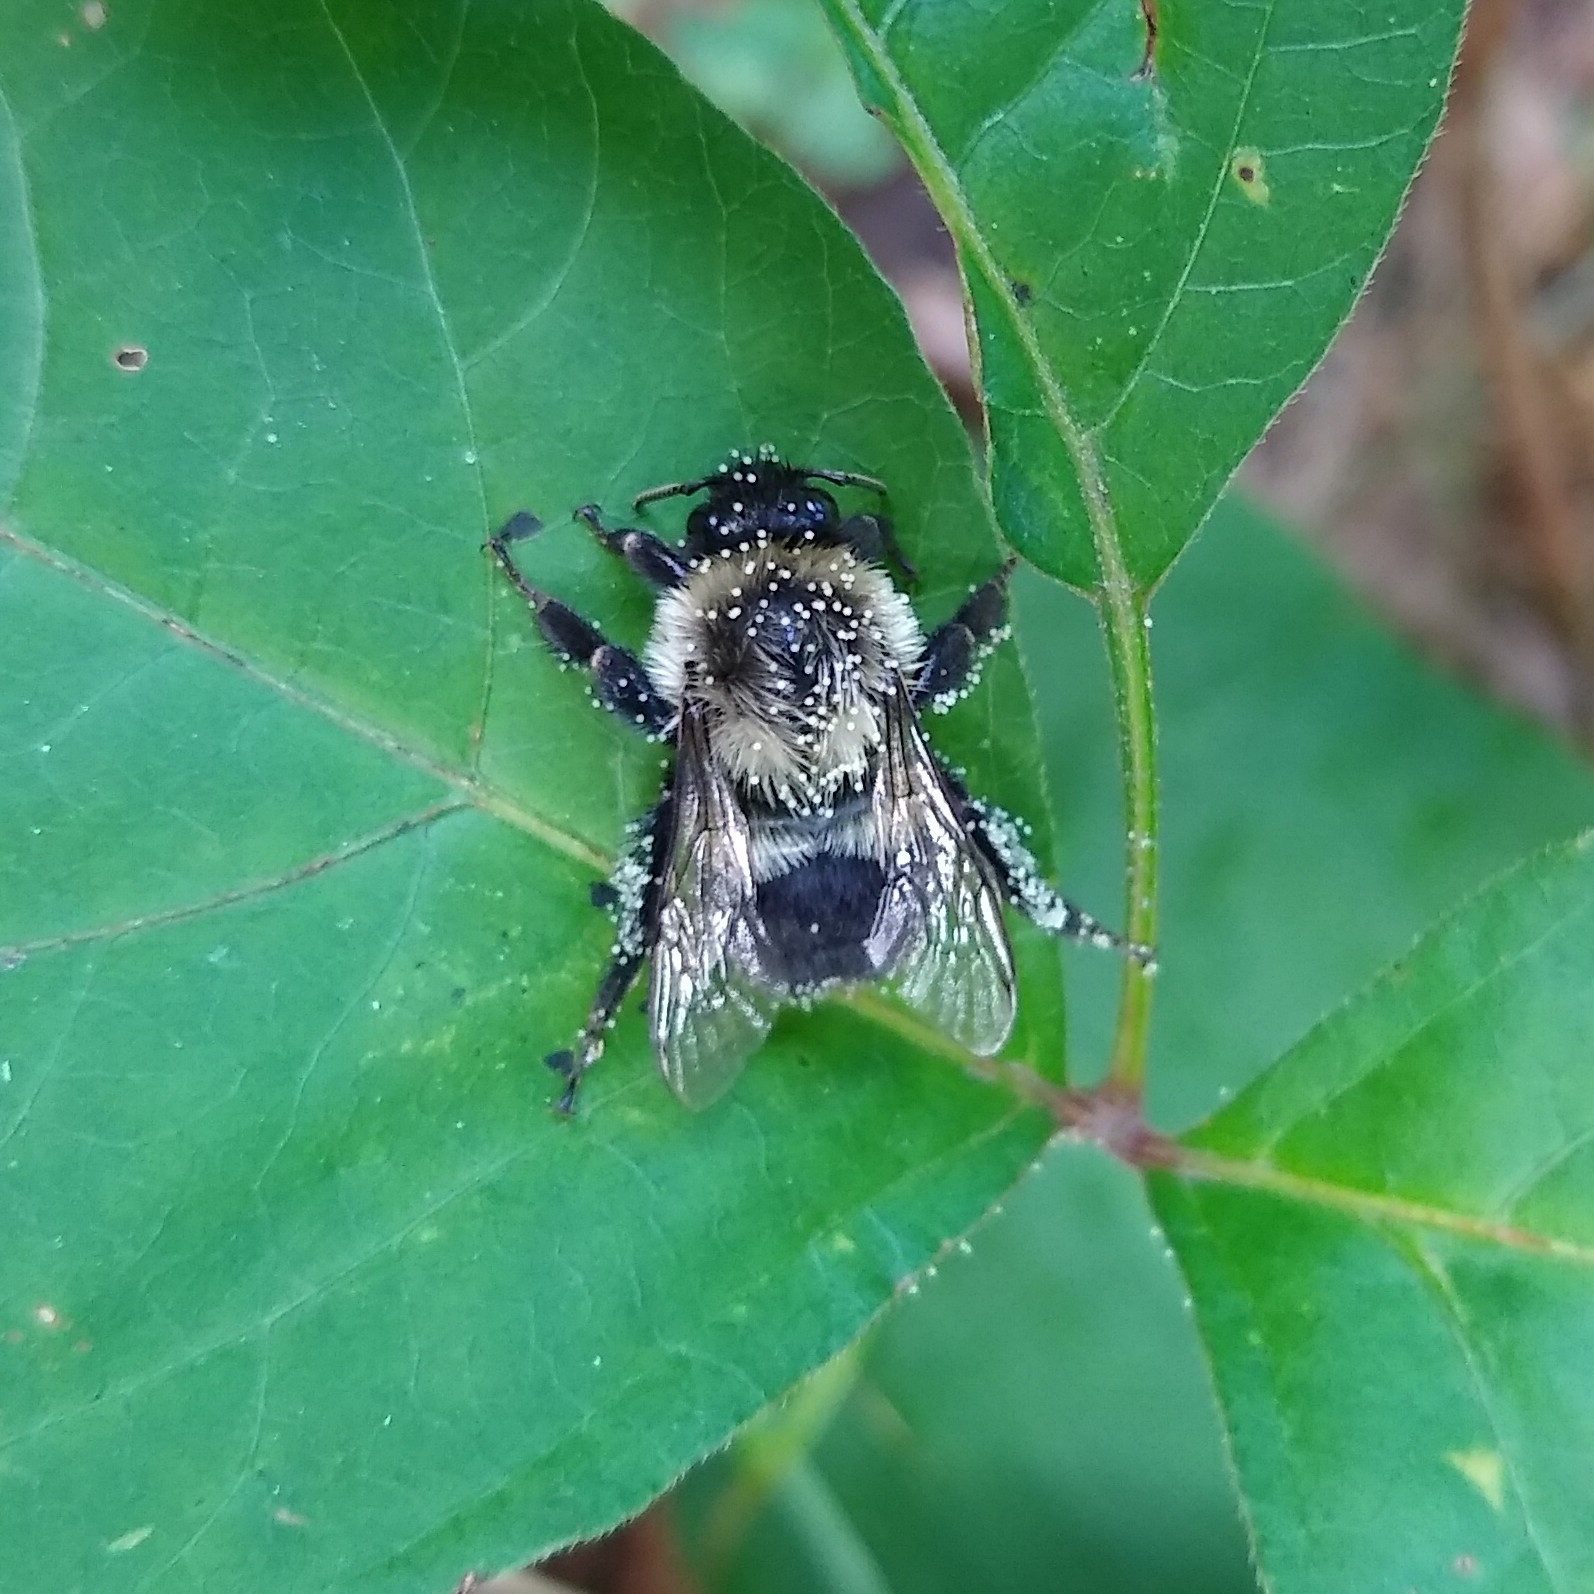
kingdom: Animalia
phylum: Arthropoda
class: Insecta
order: Hymenoptera
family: Apidae
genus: Bombus
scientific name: Bombus impatiens
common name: Common eastern bumble bee
